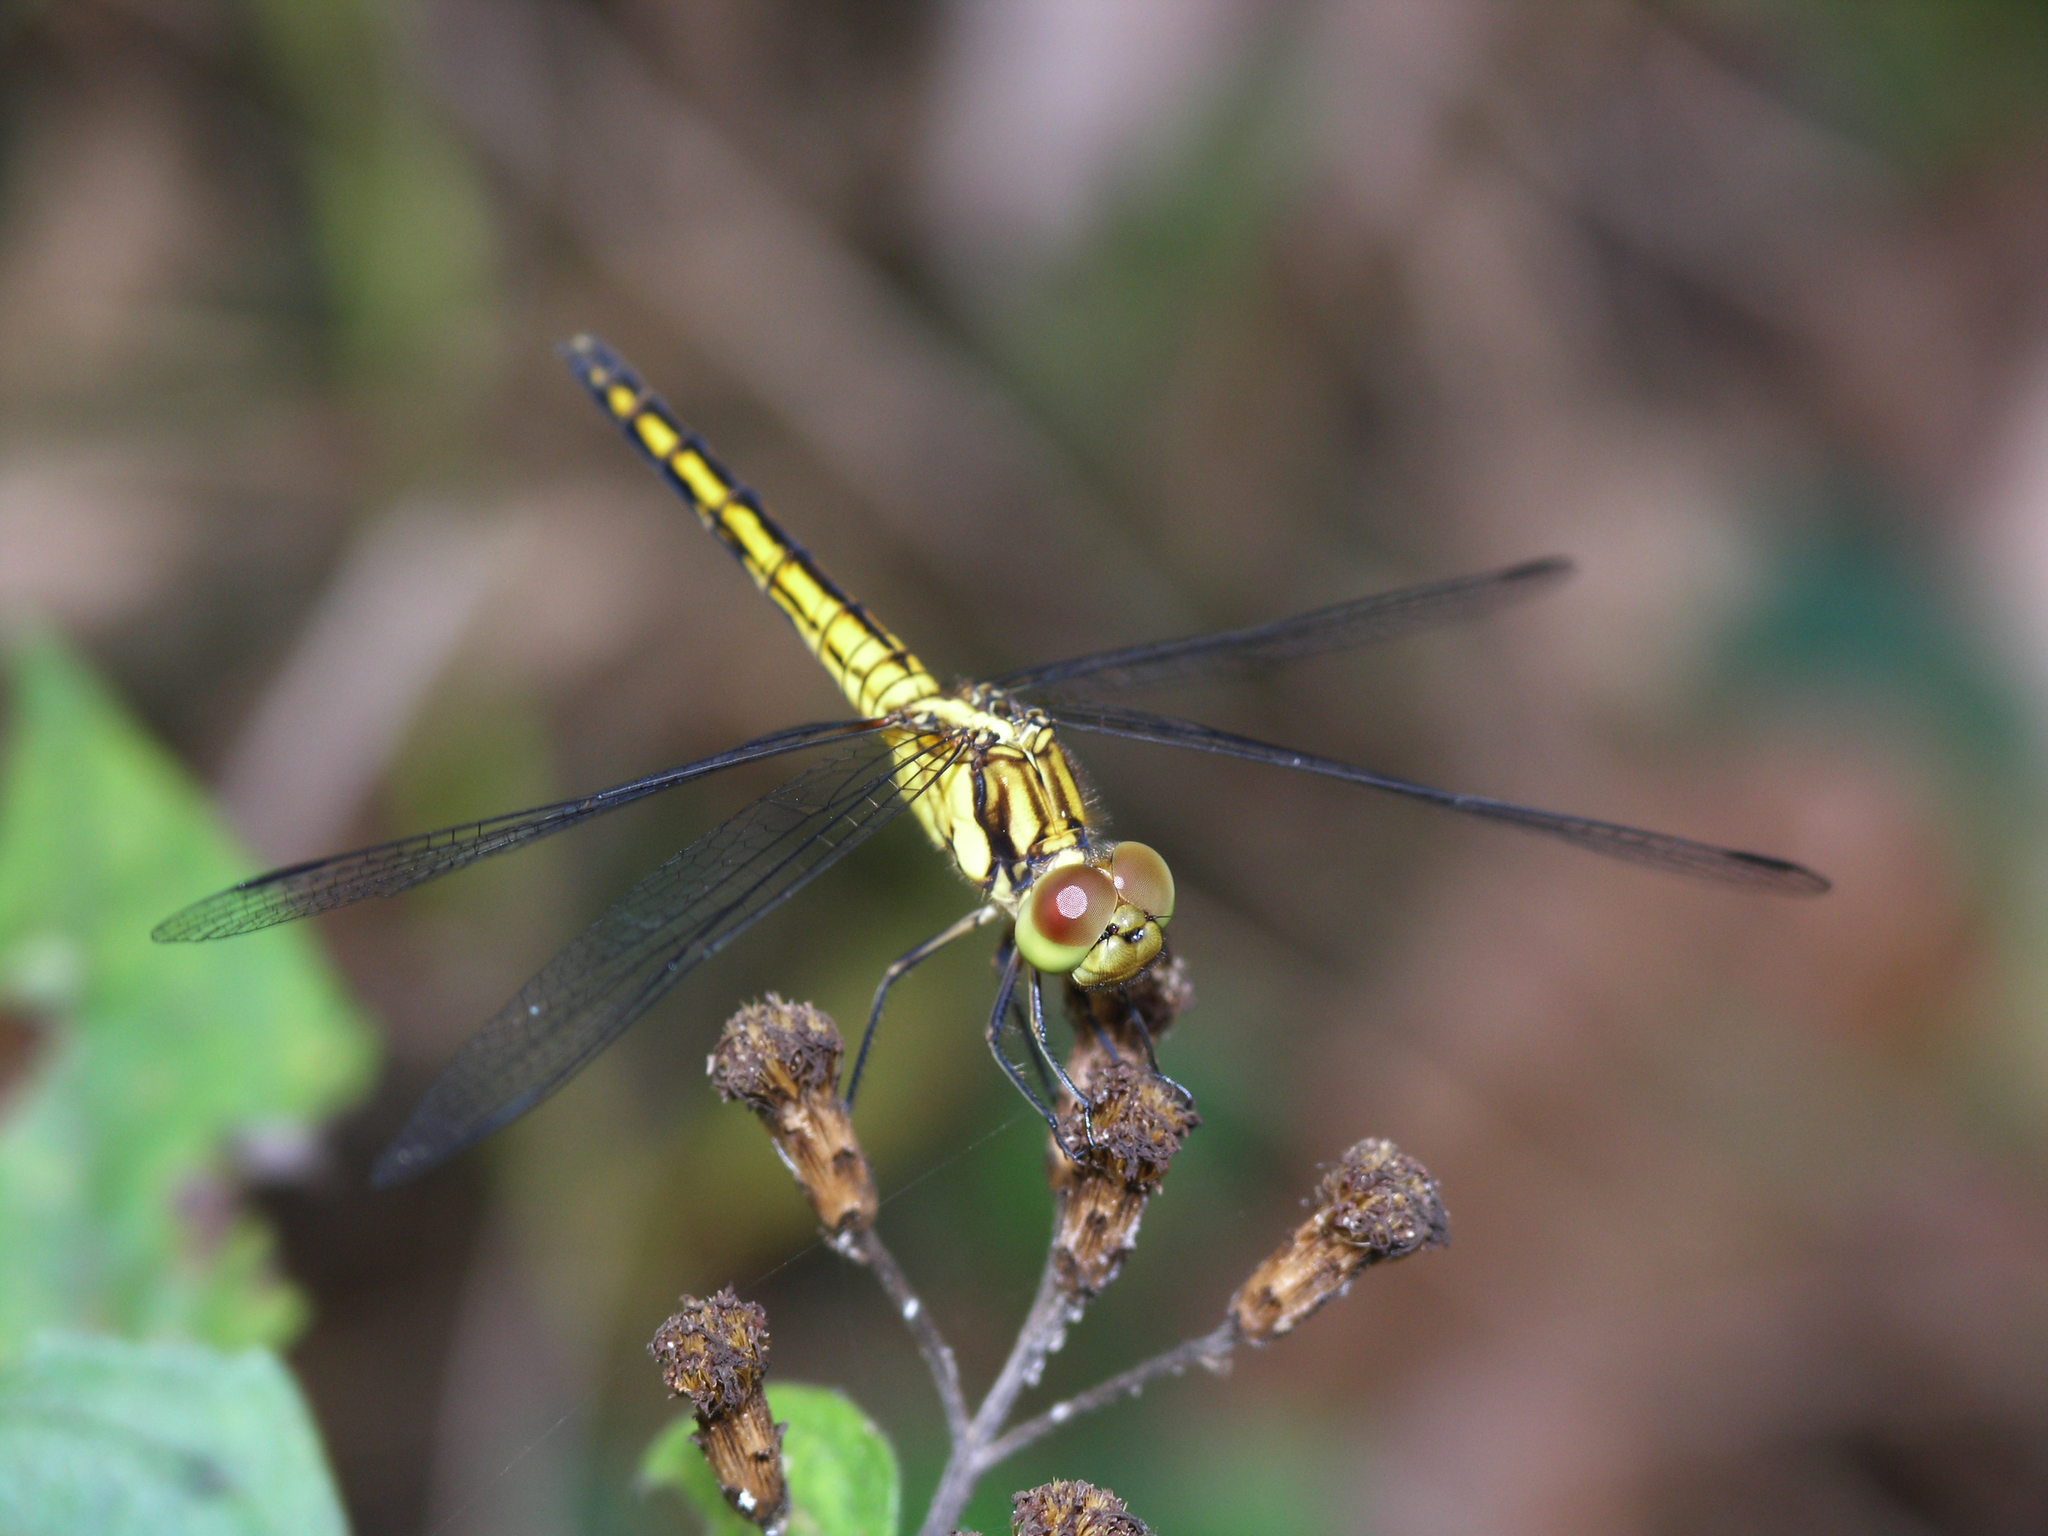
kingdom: Animalia
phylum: Arthropoda
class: Insecta
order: Odonata
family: Libellulidae
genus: Indothemis
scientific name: Indothemis carnatica
